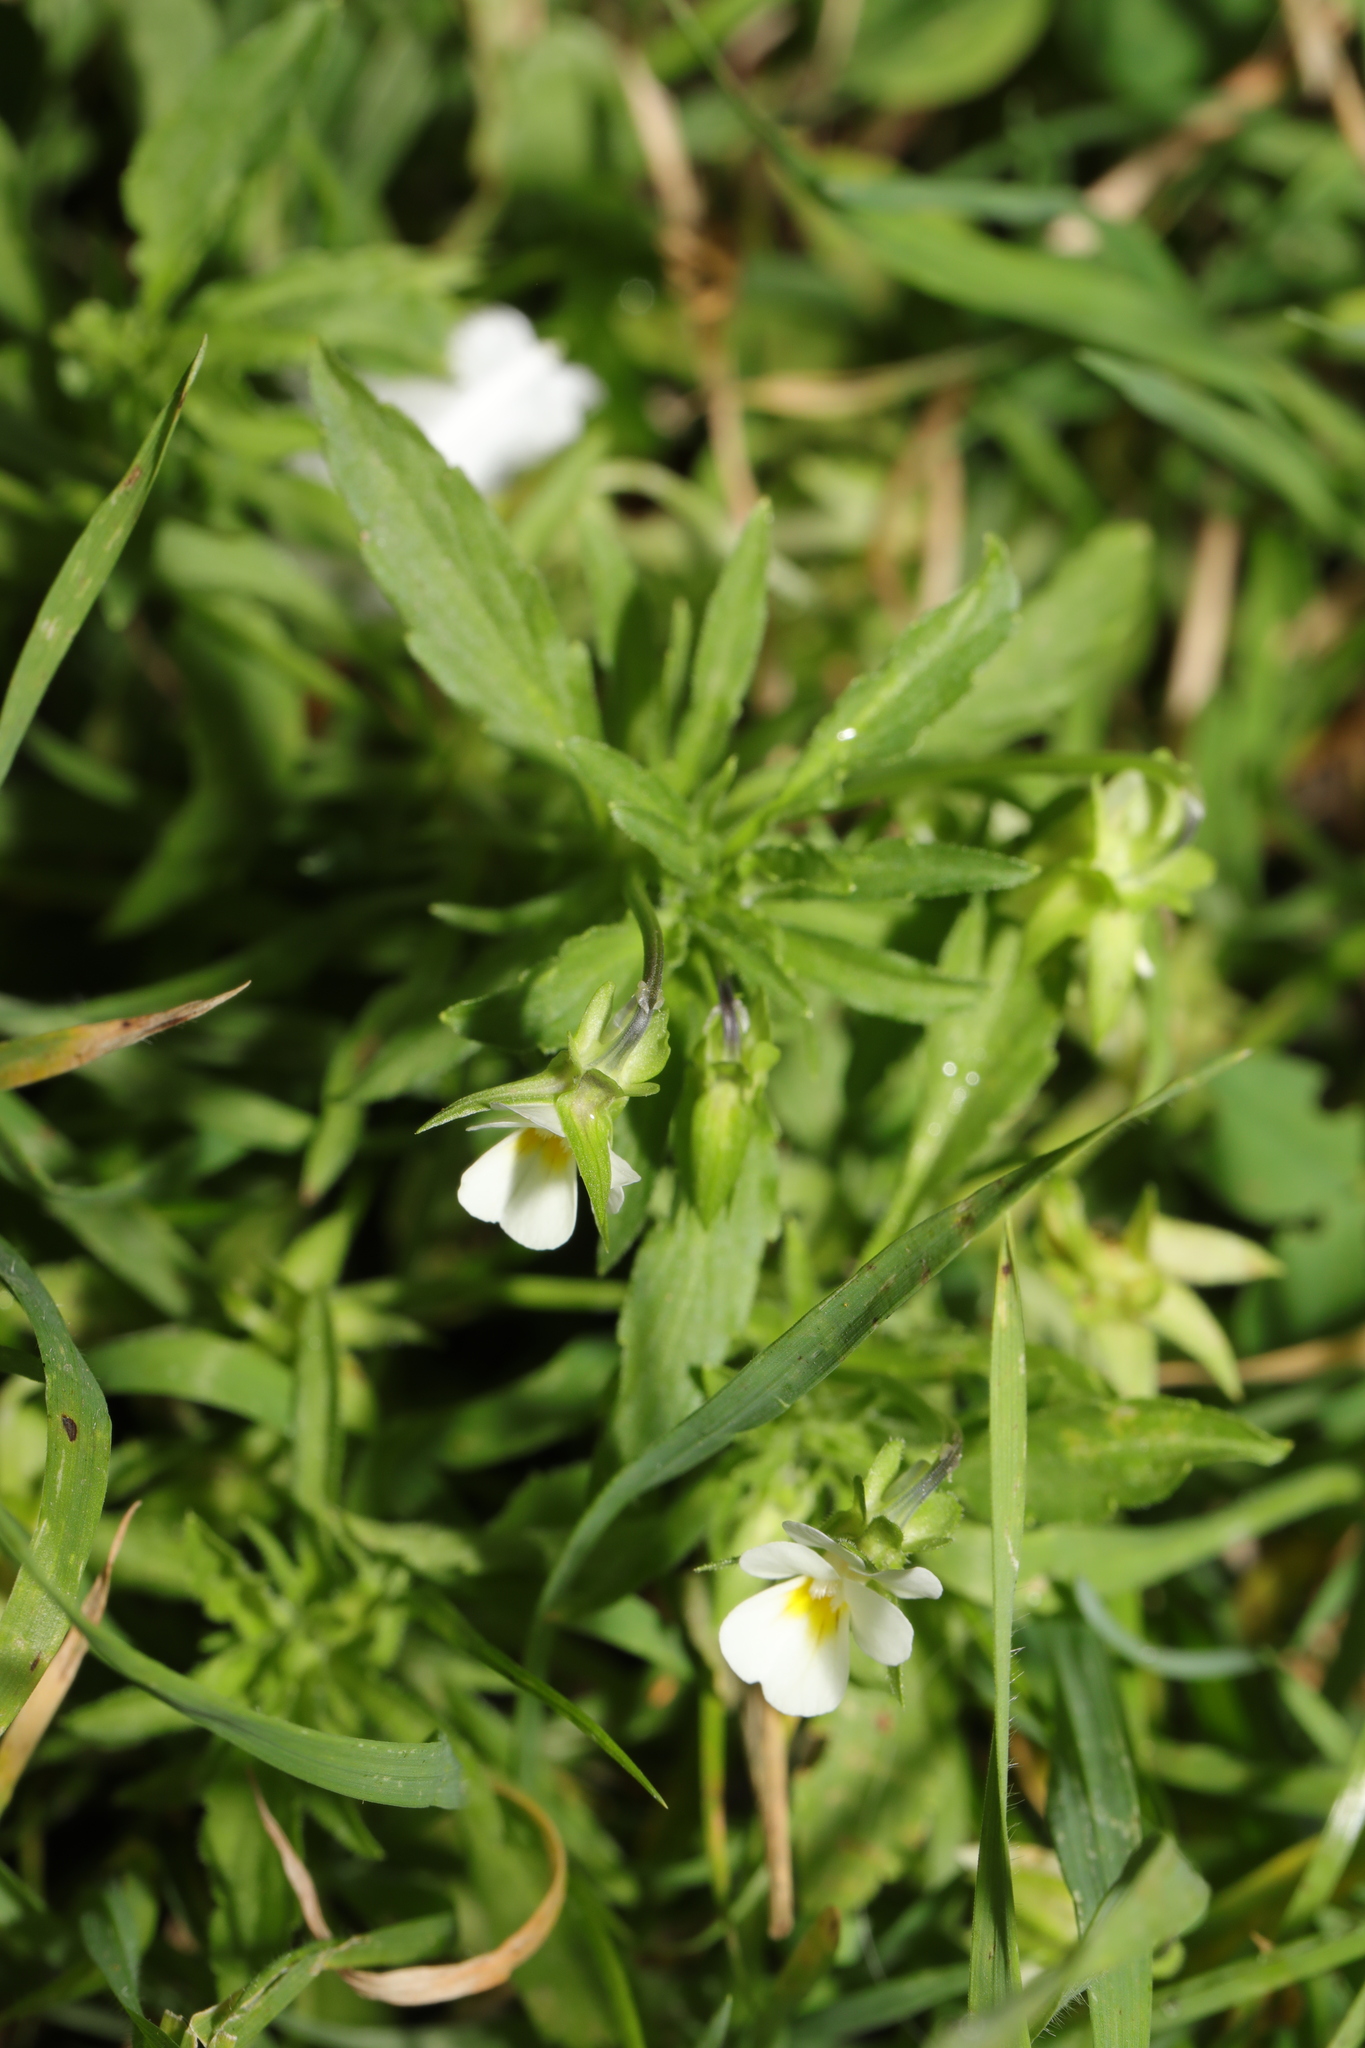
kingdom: Plantae
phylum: Tracheophyta
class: Magnoliopsida
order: Malpighiales
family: Violaceae
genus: Viola
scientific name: Viola arvensis
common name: Field pansy
